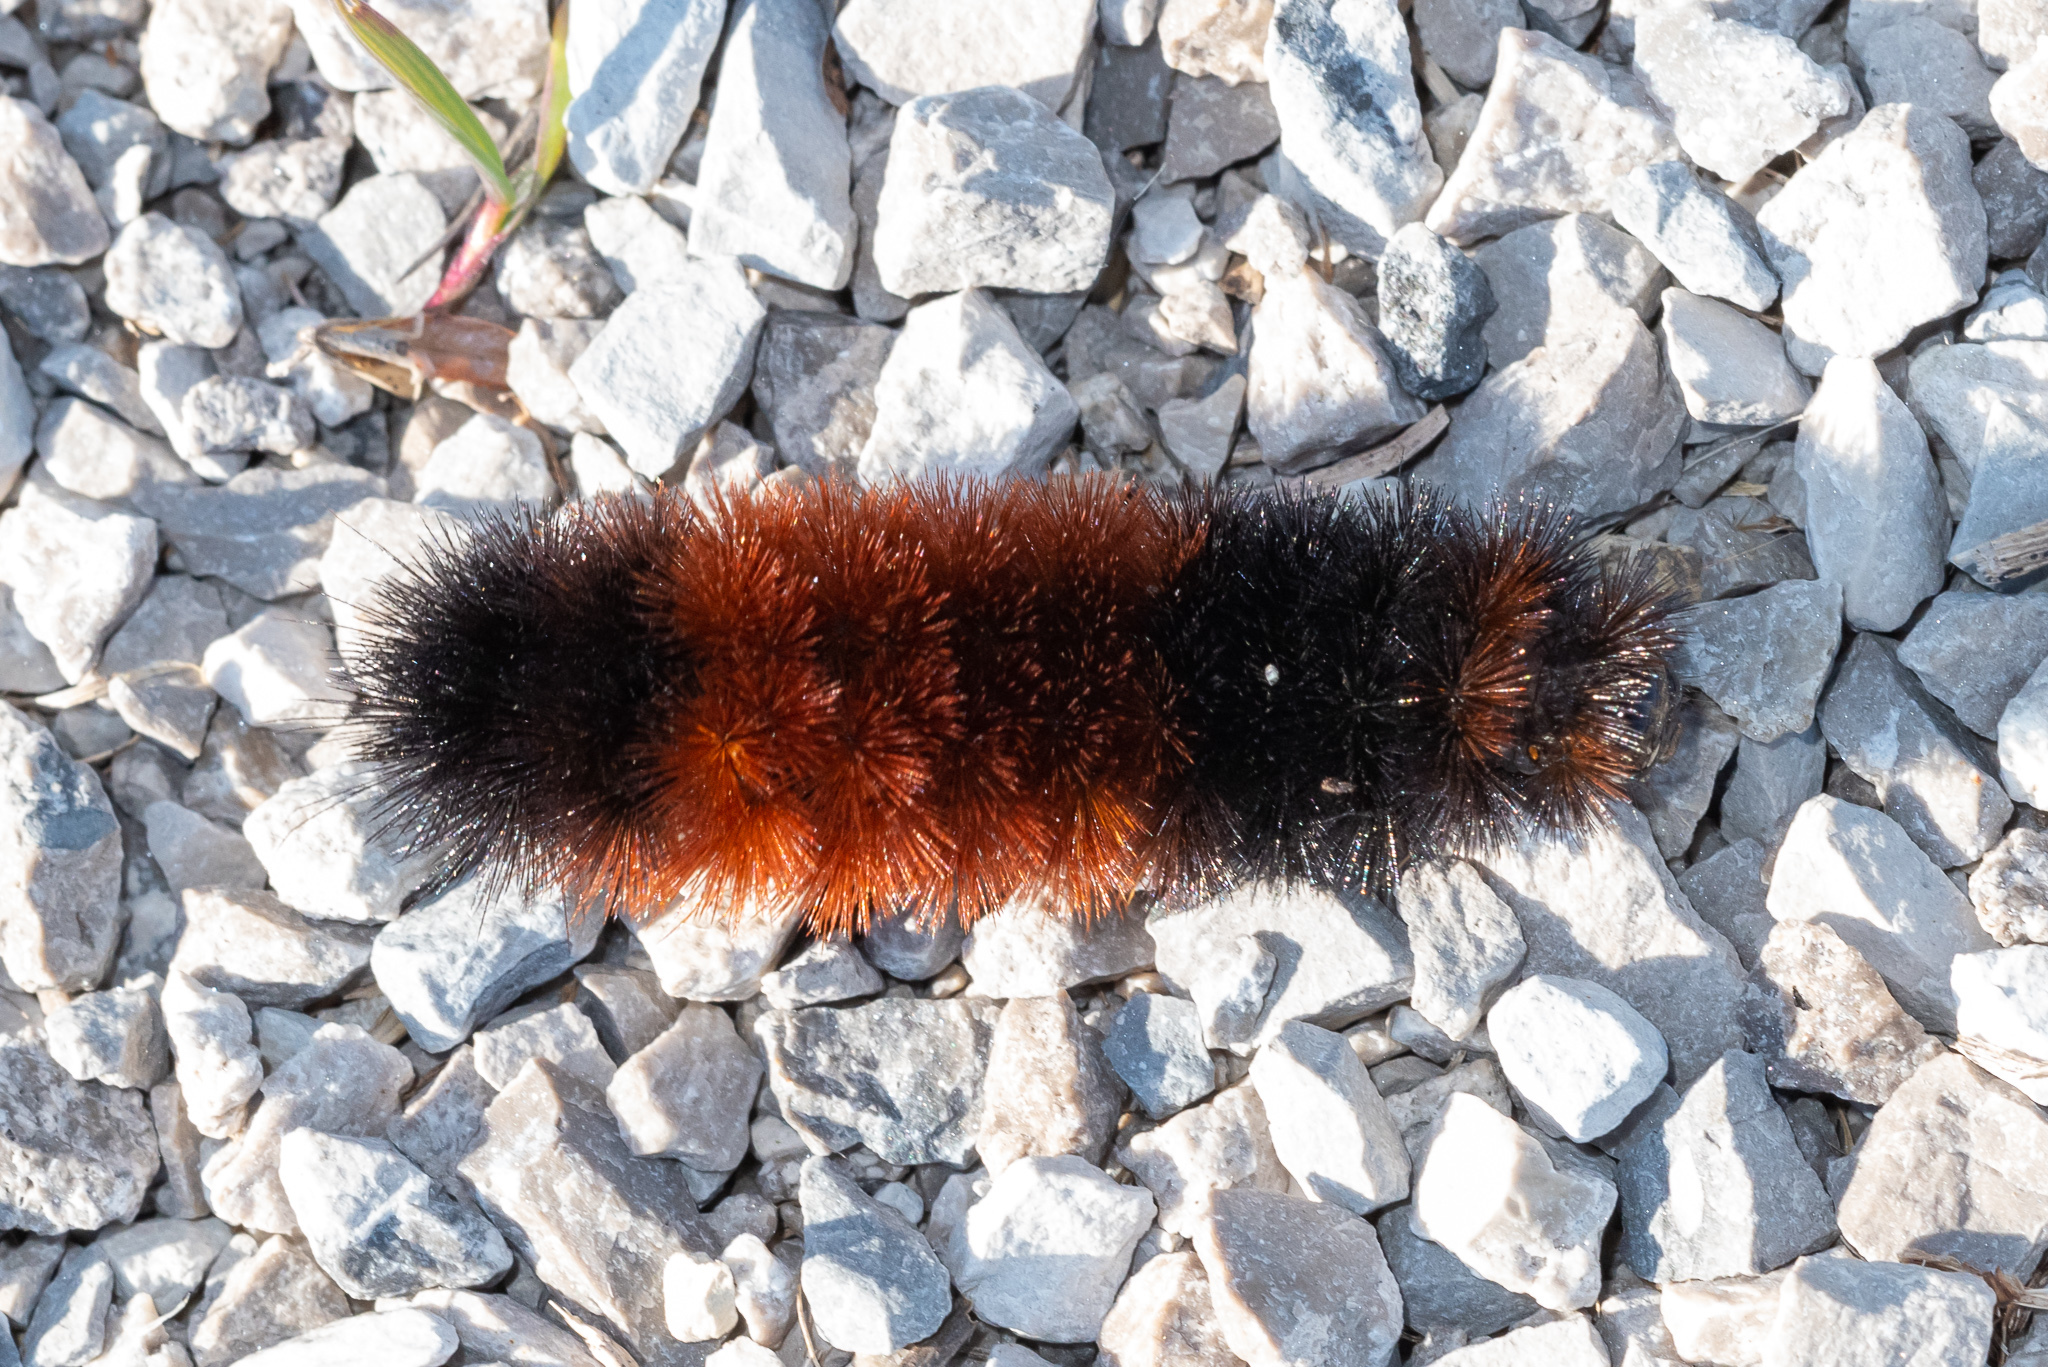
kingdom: Animalia
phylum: Arthropoda
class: Insecta
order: Lepidoptera
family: Erebidae
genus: Pyrrharctia
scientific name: Pyrrharctia isabella
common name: Isabella tiger moth
